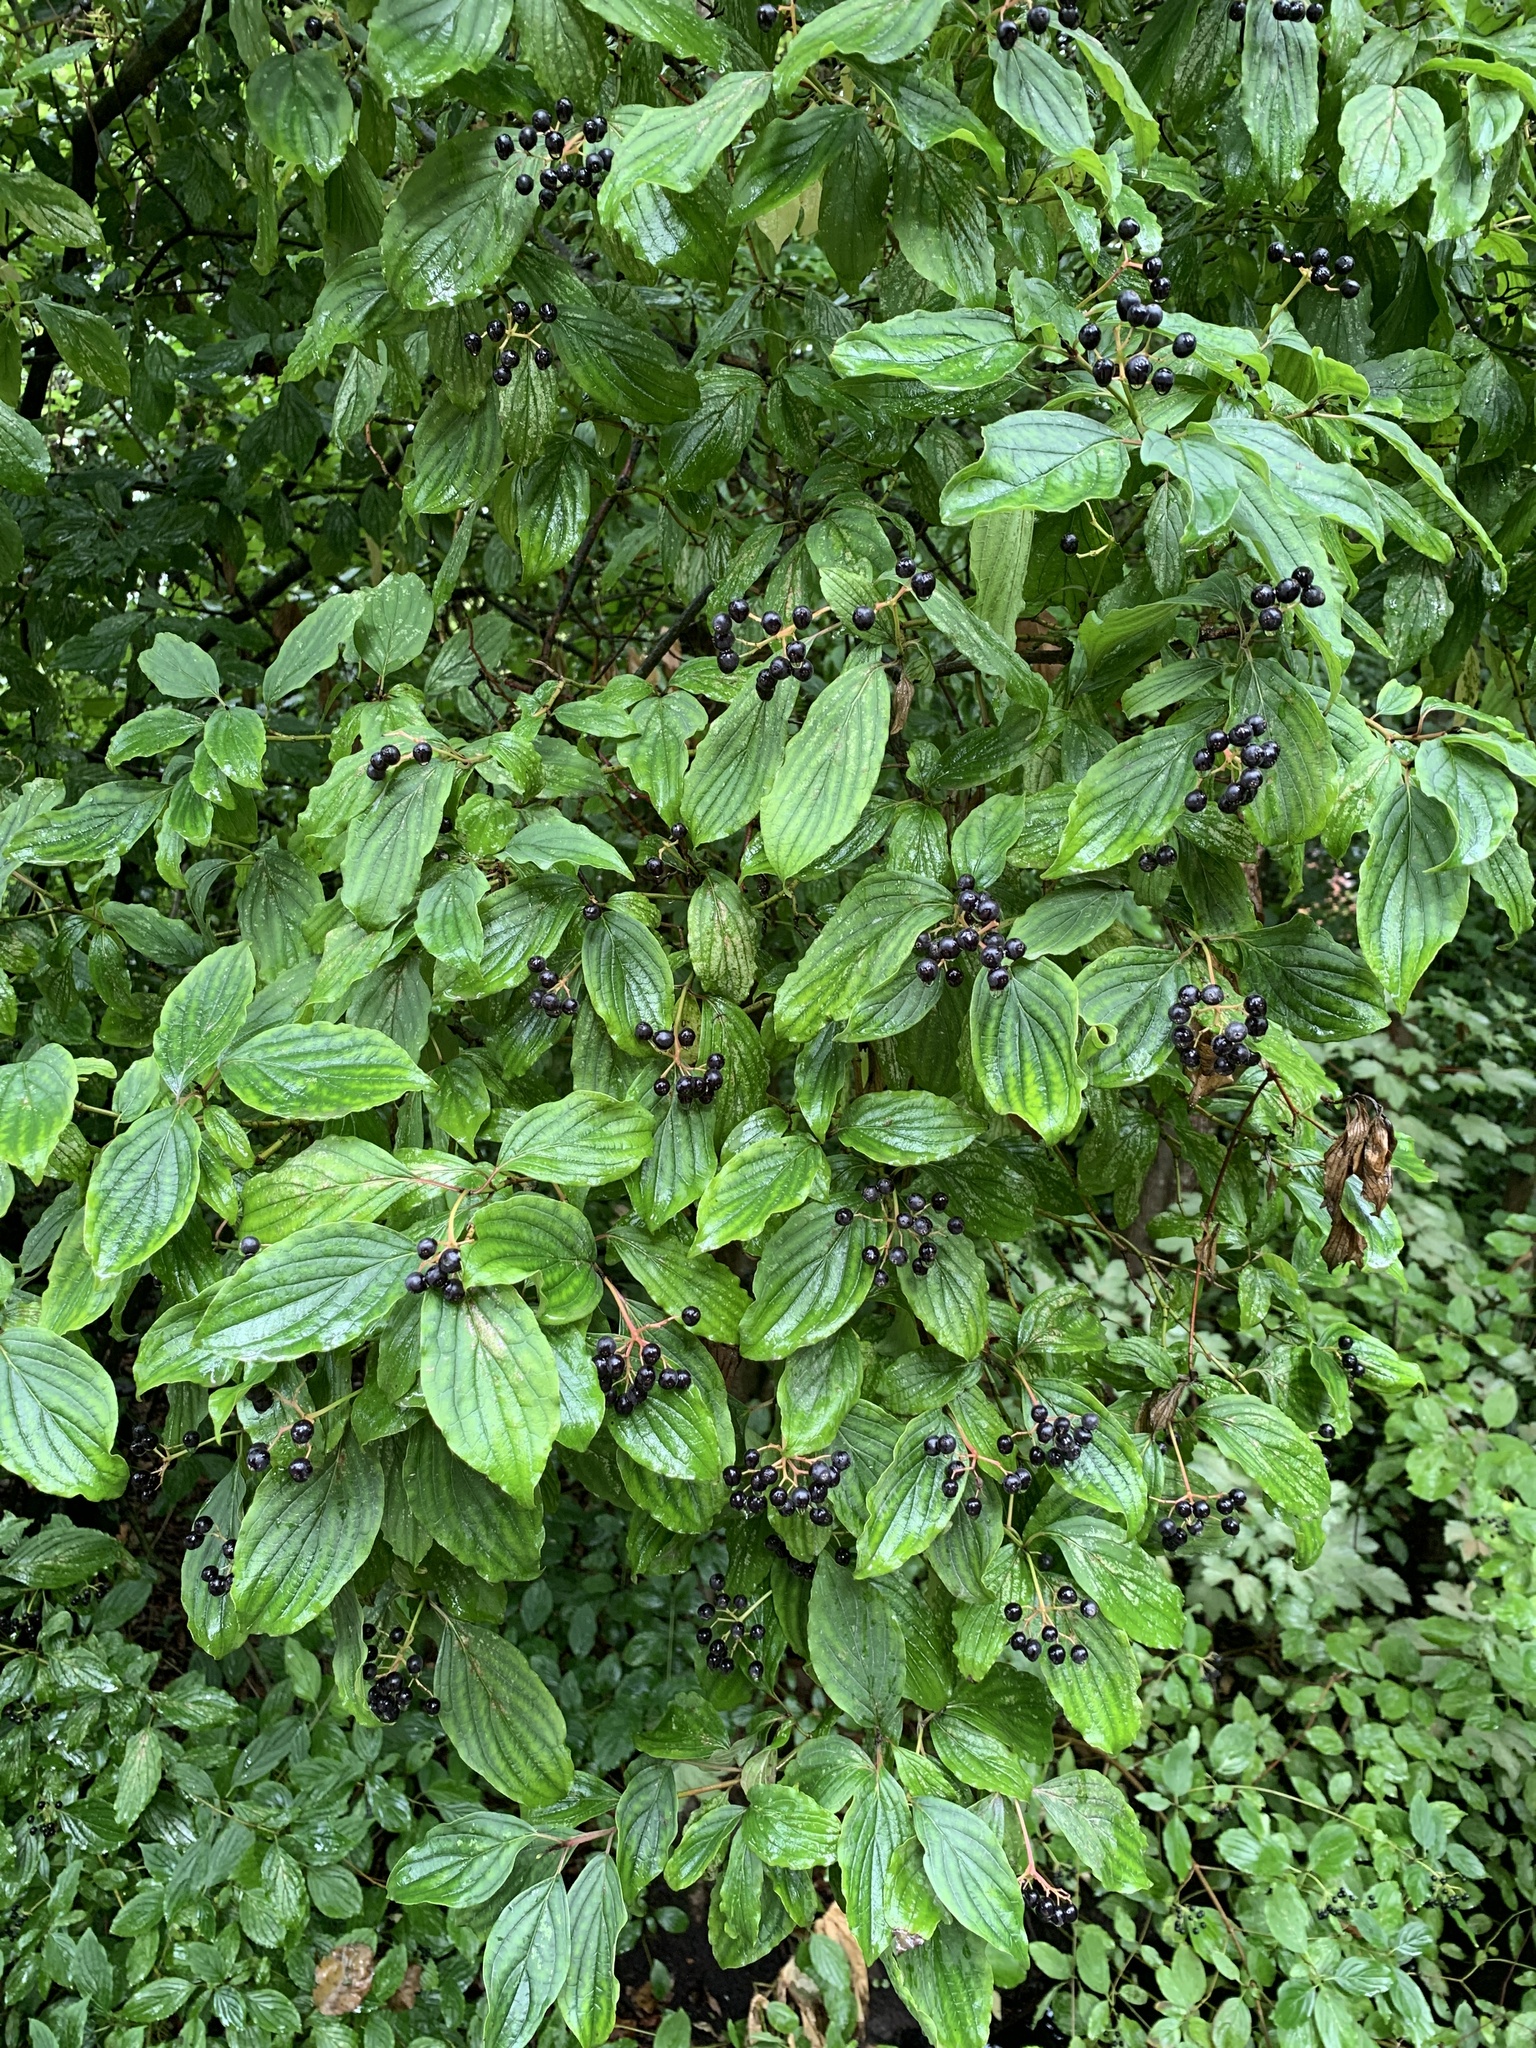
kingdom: Plantae
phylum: Tracheophyta
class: Magnoliopsida
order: Cornales
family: Cornaceae
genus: Cornus
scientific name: Cornus sanguinea
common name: Dogwood
